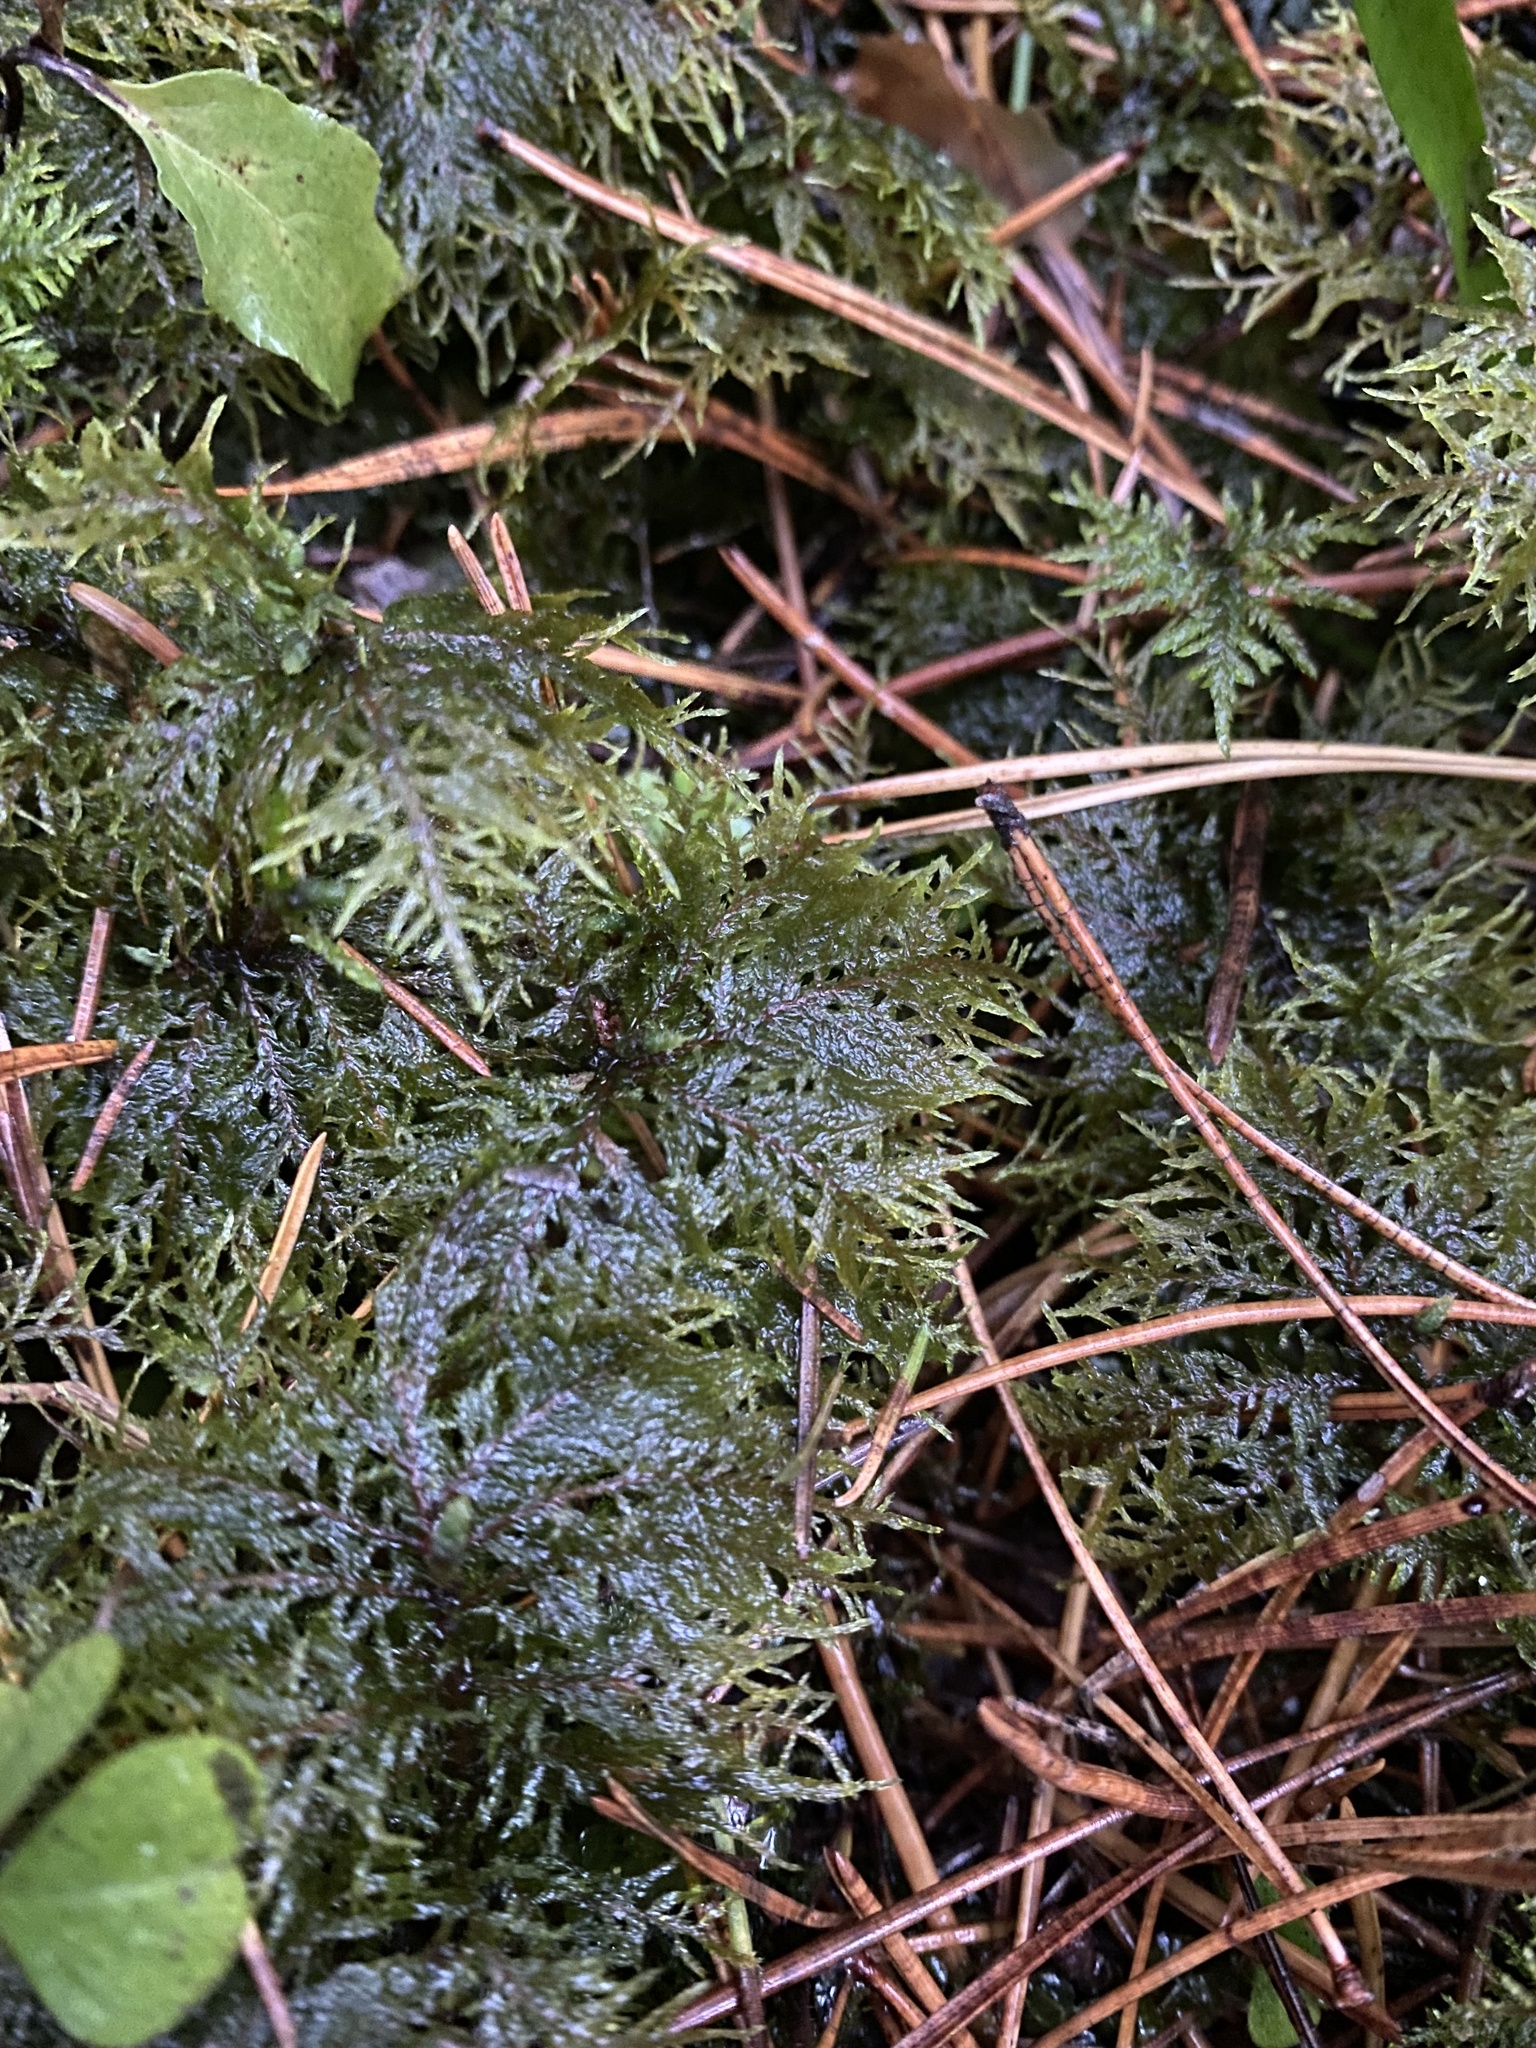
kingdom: Plantae
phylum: Bryophyta
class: Bryopsida
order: Hypnales
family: Hylocomiaceae
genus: Hylocomium
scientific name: Hylocomium splendens
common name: Stairstep moss
